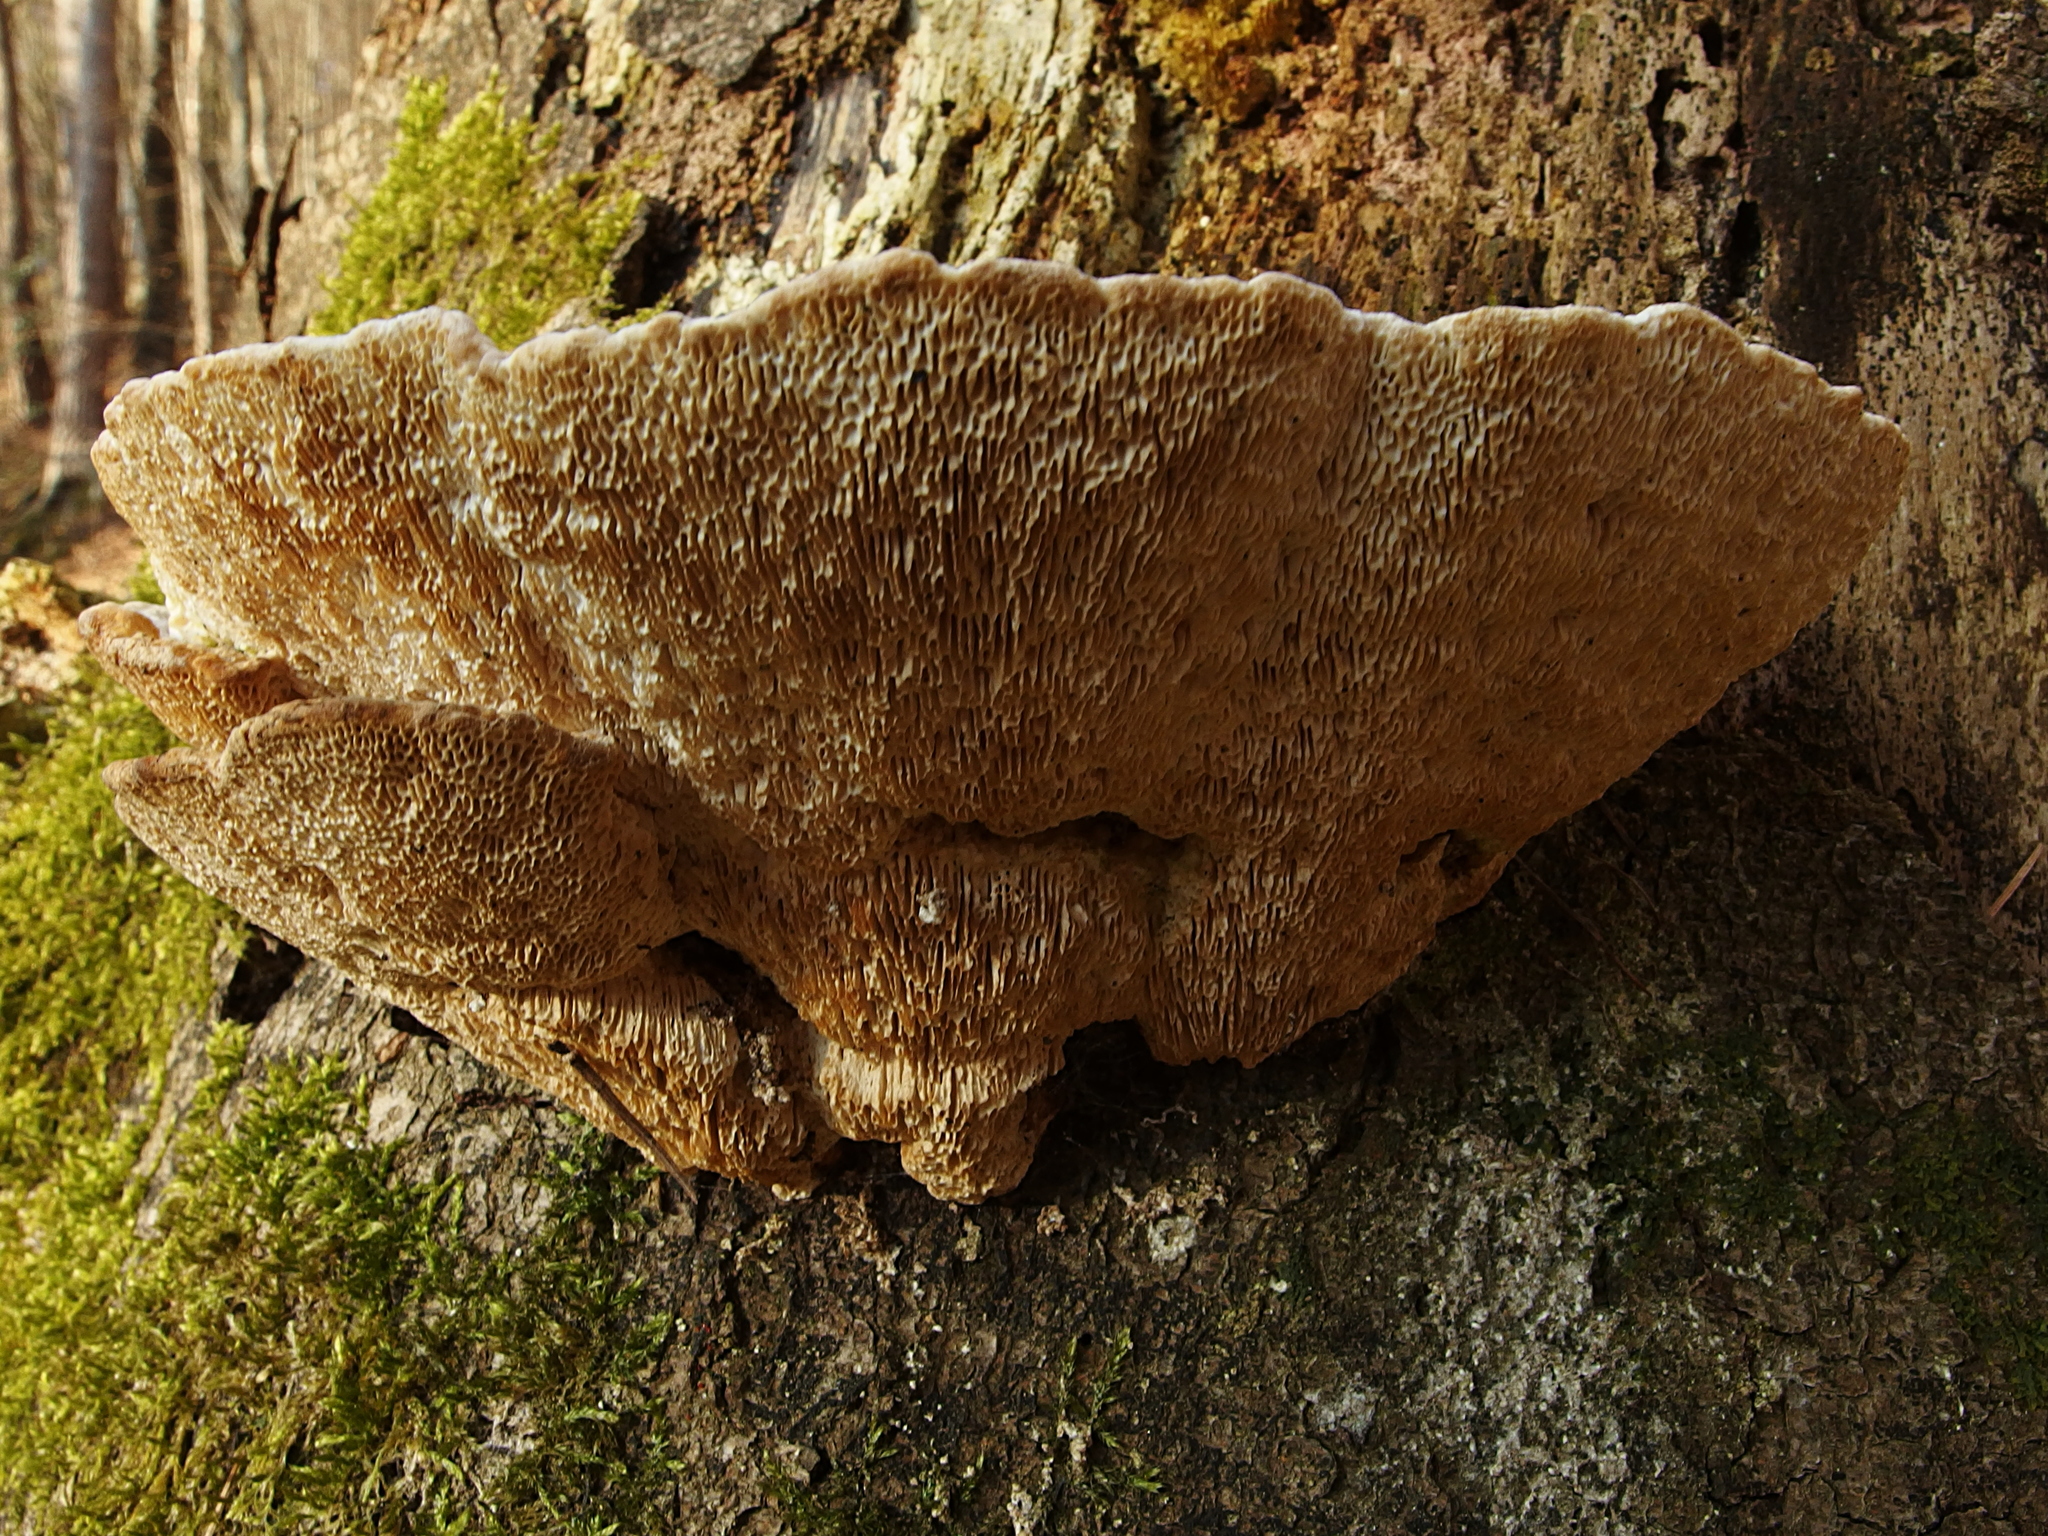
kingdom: Fungi
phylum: Basidiomycota
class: Agaricomycetes
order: Polyporales
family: Polyporaceae
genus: Trametes
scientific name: Trametes gibbosa
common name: Lumpy bracket
